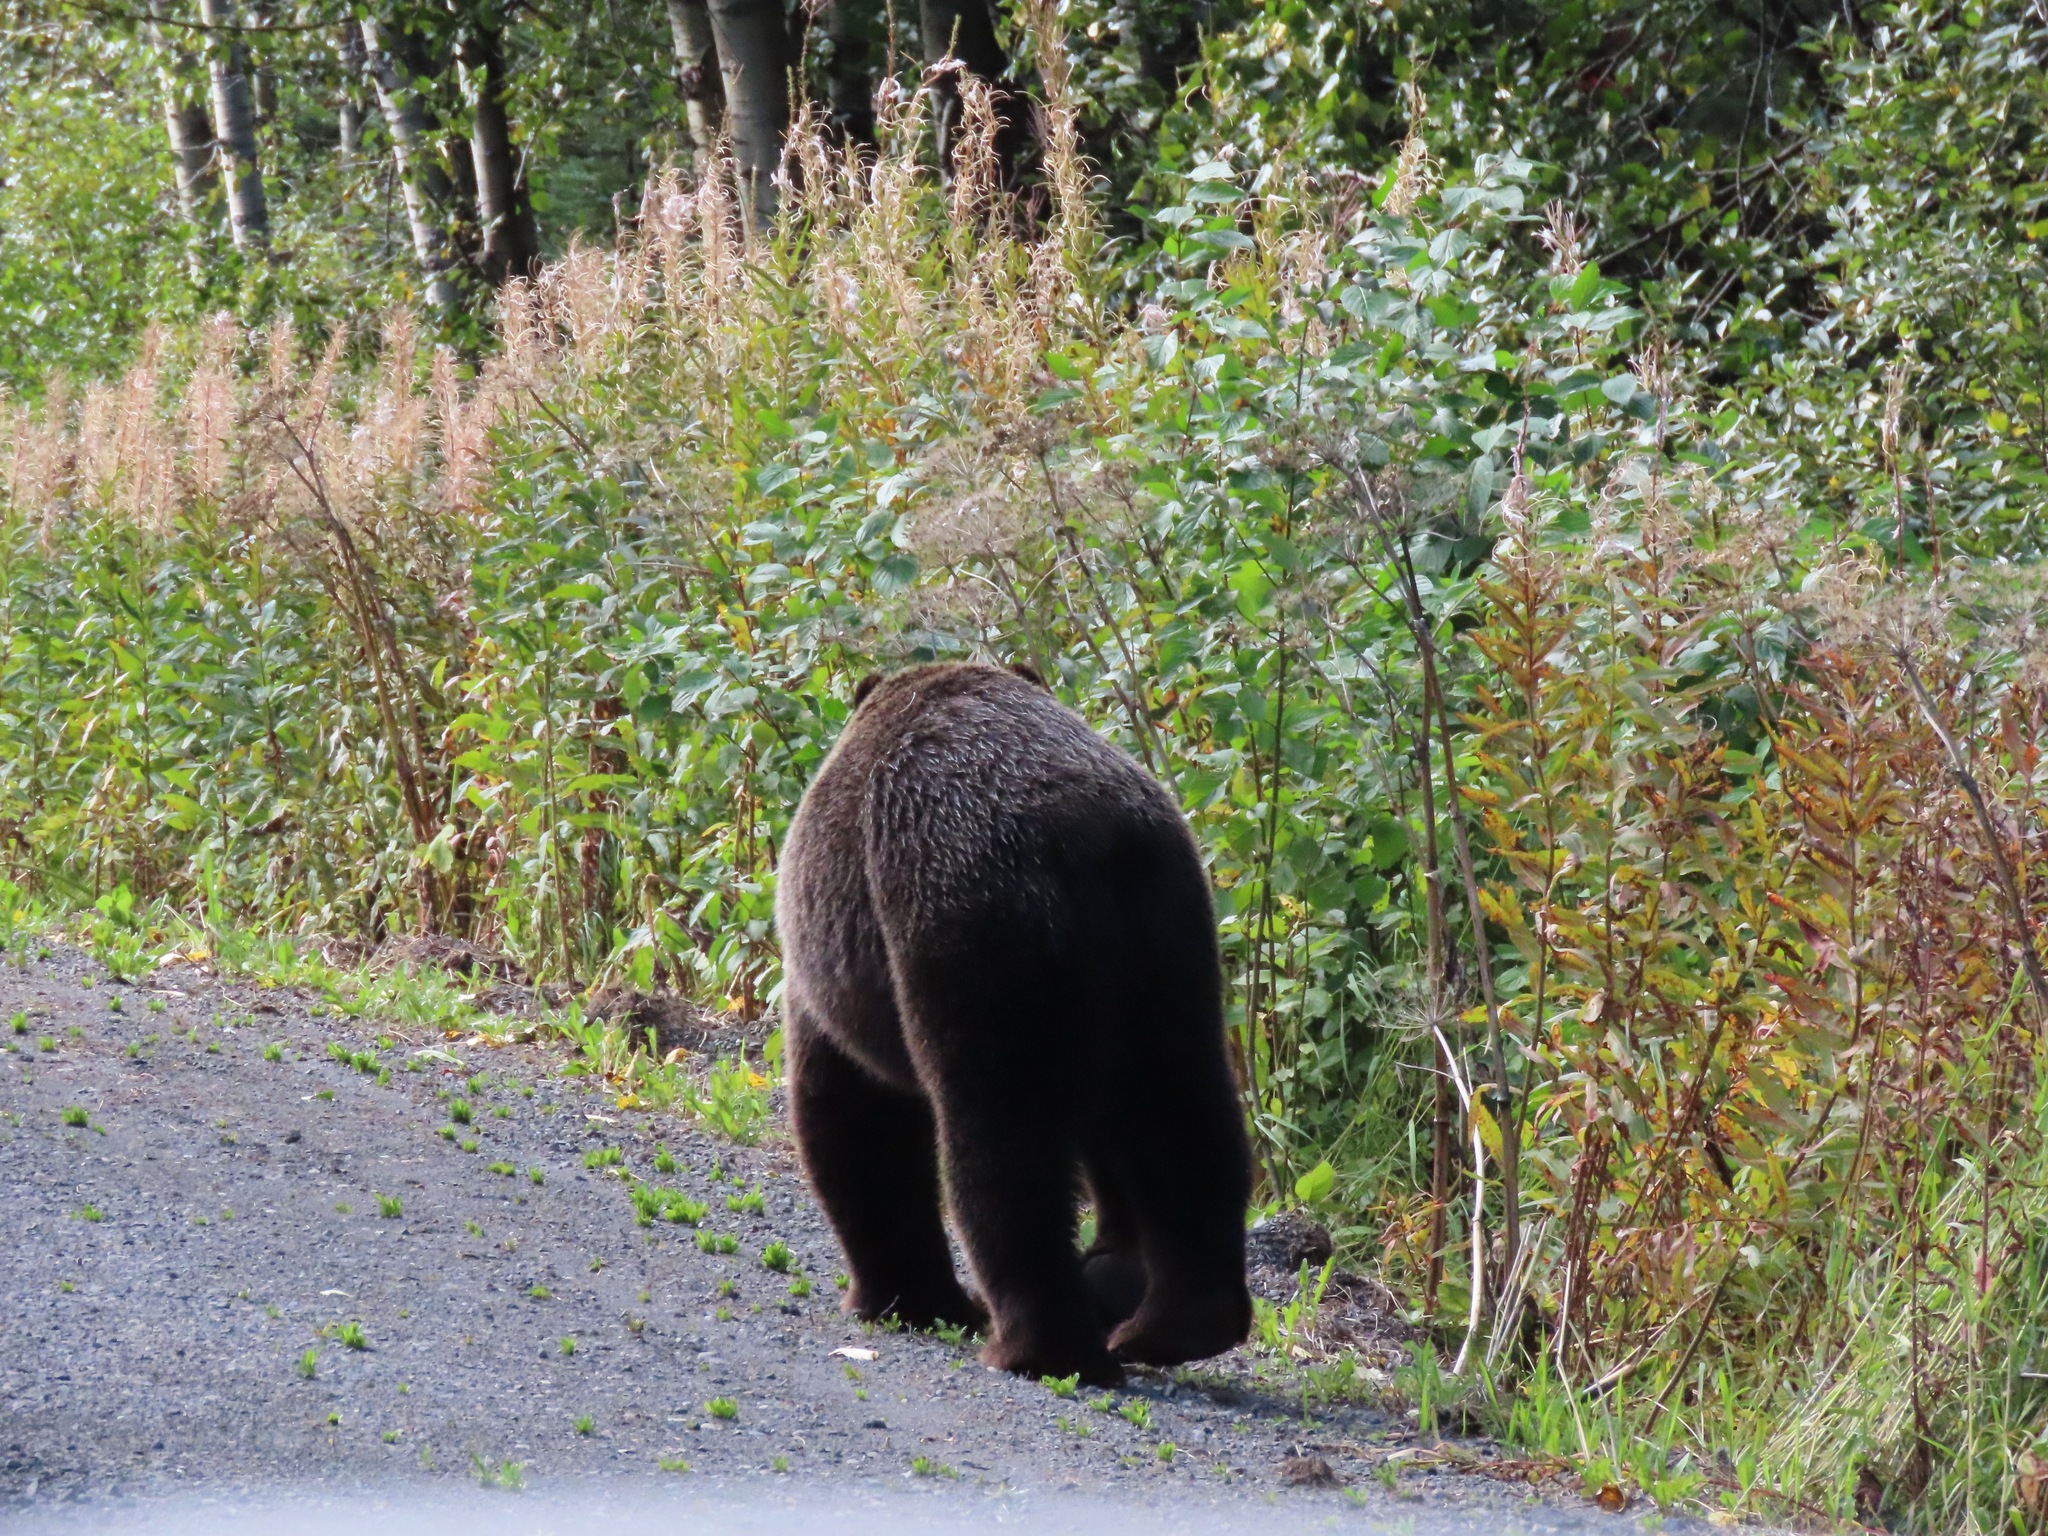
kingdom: Animalia
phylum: Chordata
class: Mammalia
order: Carnivora
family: Ursidae
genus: Ursus
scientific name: Ursus arctos
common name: Brown bear
